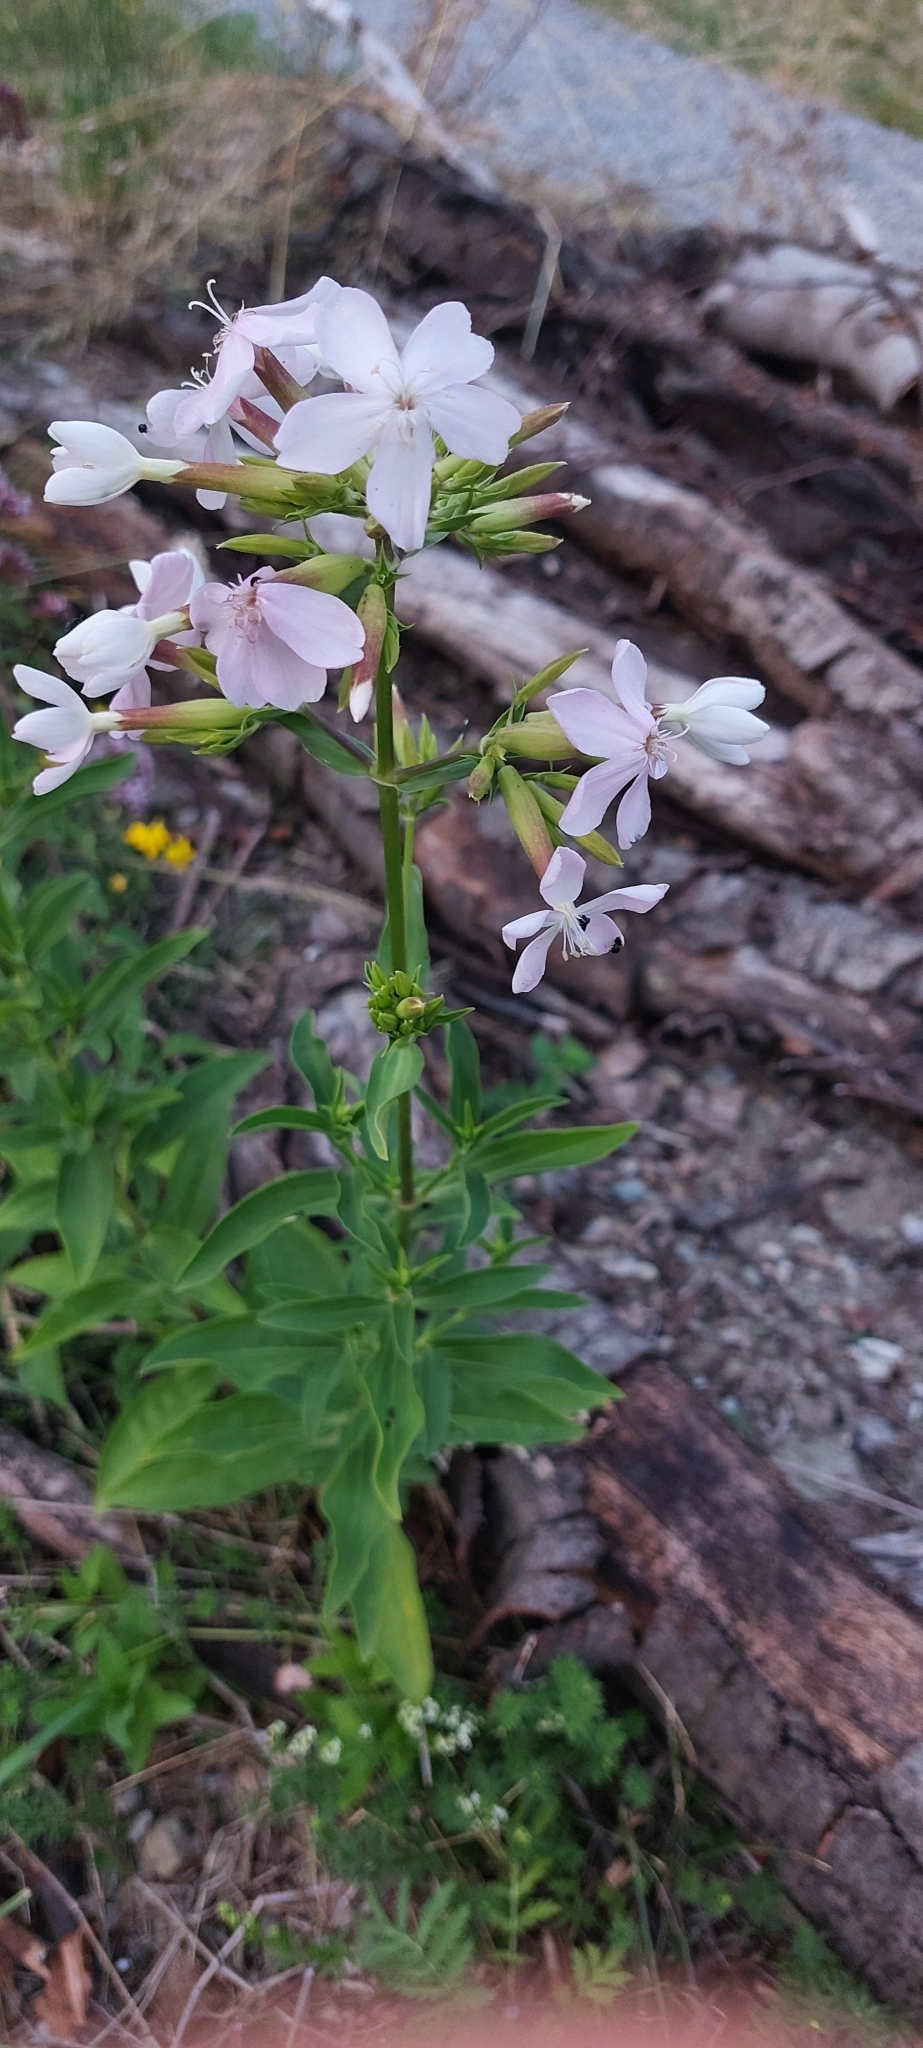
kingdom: Plantae
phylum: Tracheophyta
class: Magnoliopsida
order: Caryophyllales
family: Caryophyllaceae
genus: Saponaria
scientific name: Saponaria officinalis
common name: Soapwort
